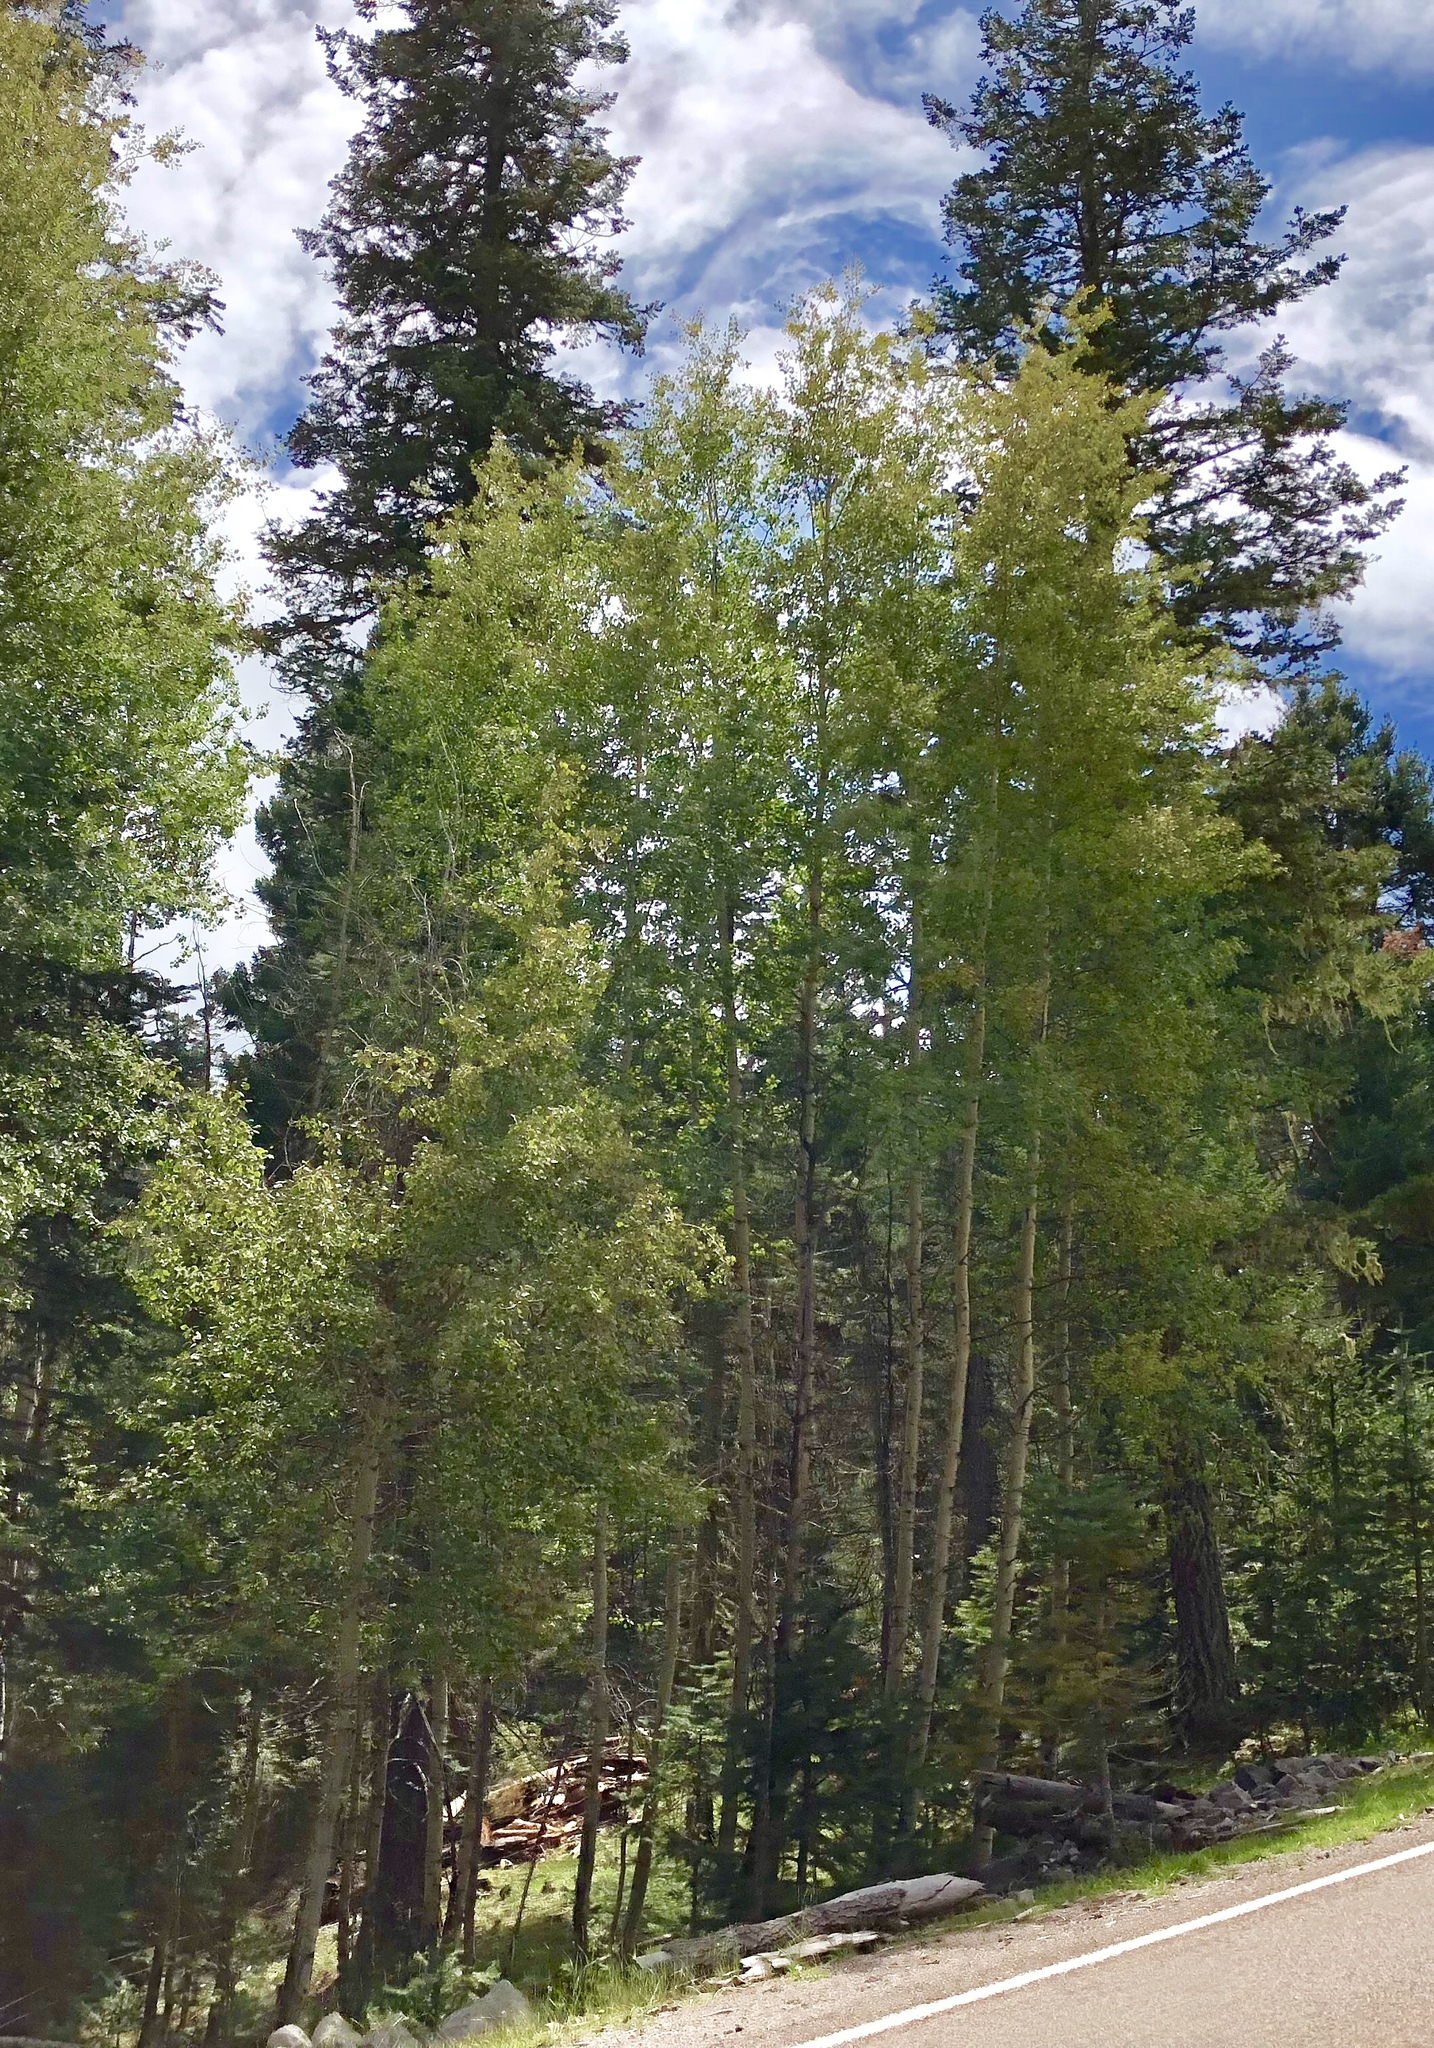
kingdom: Plantae
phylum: Tracheophyta
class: Magnoliopsida
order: Malpighiales
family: Salicaceae
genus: Populus
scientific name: Populus tremuloides
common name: Quaking aspen
